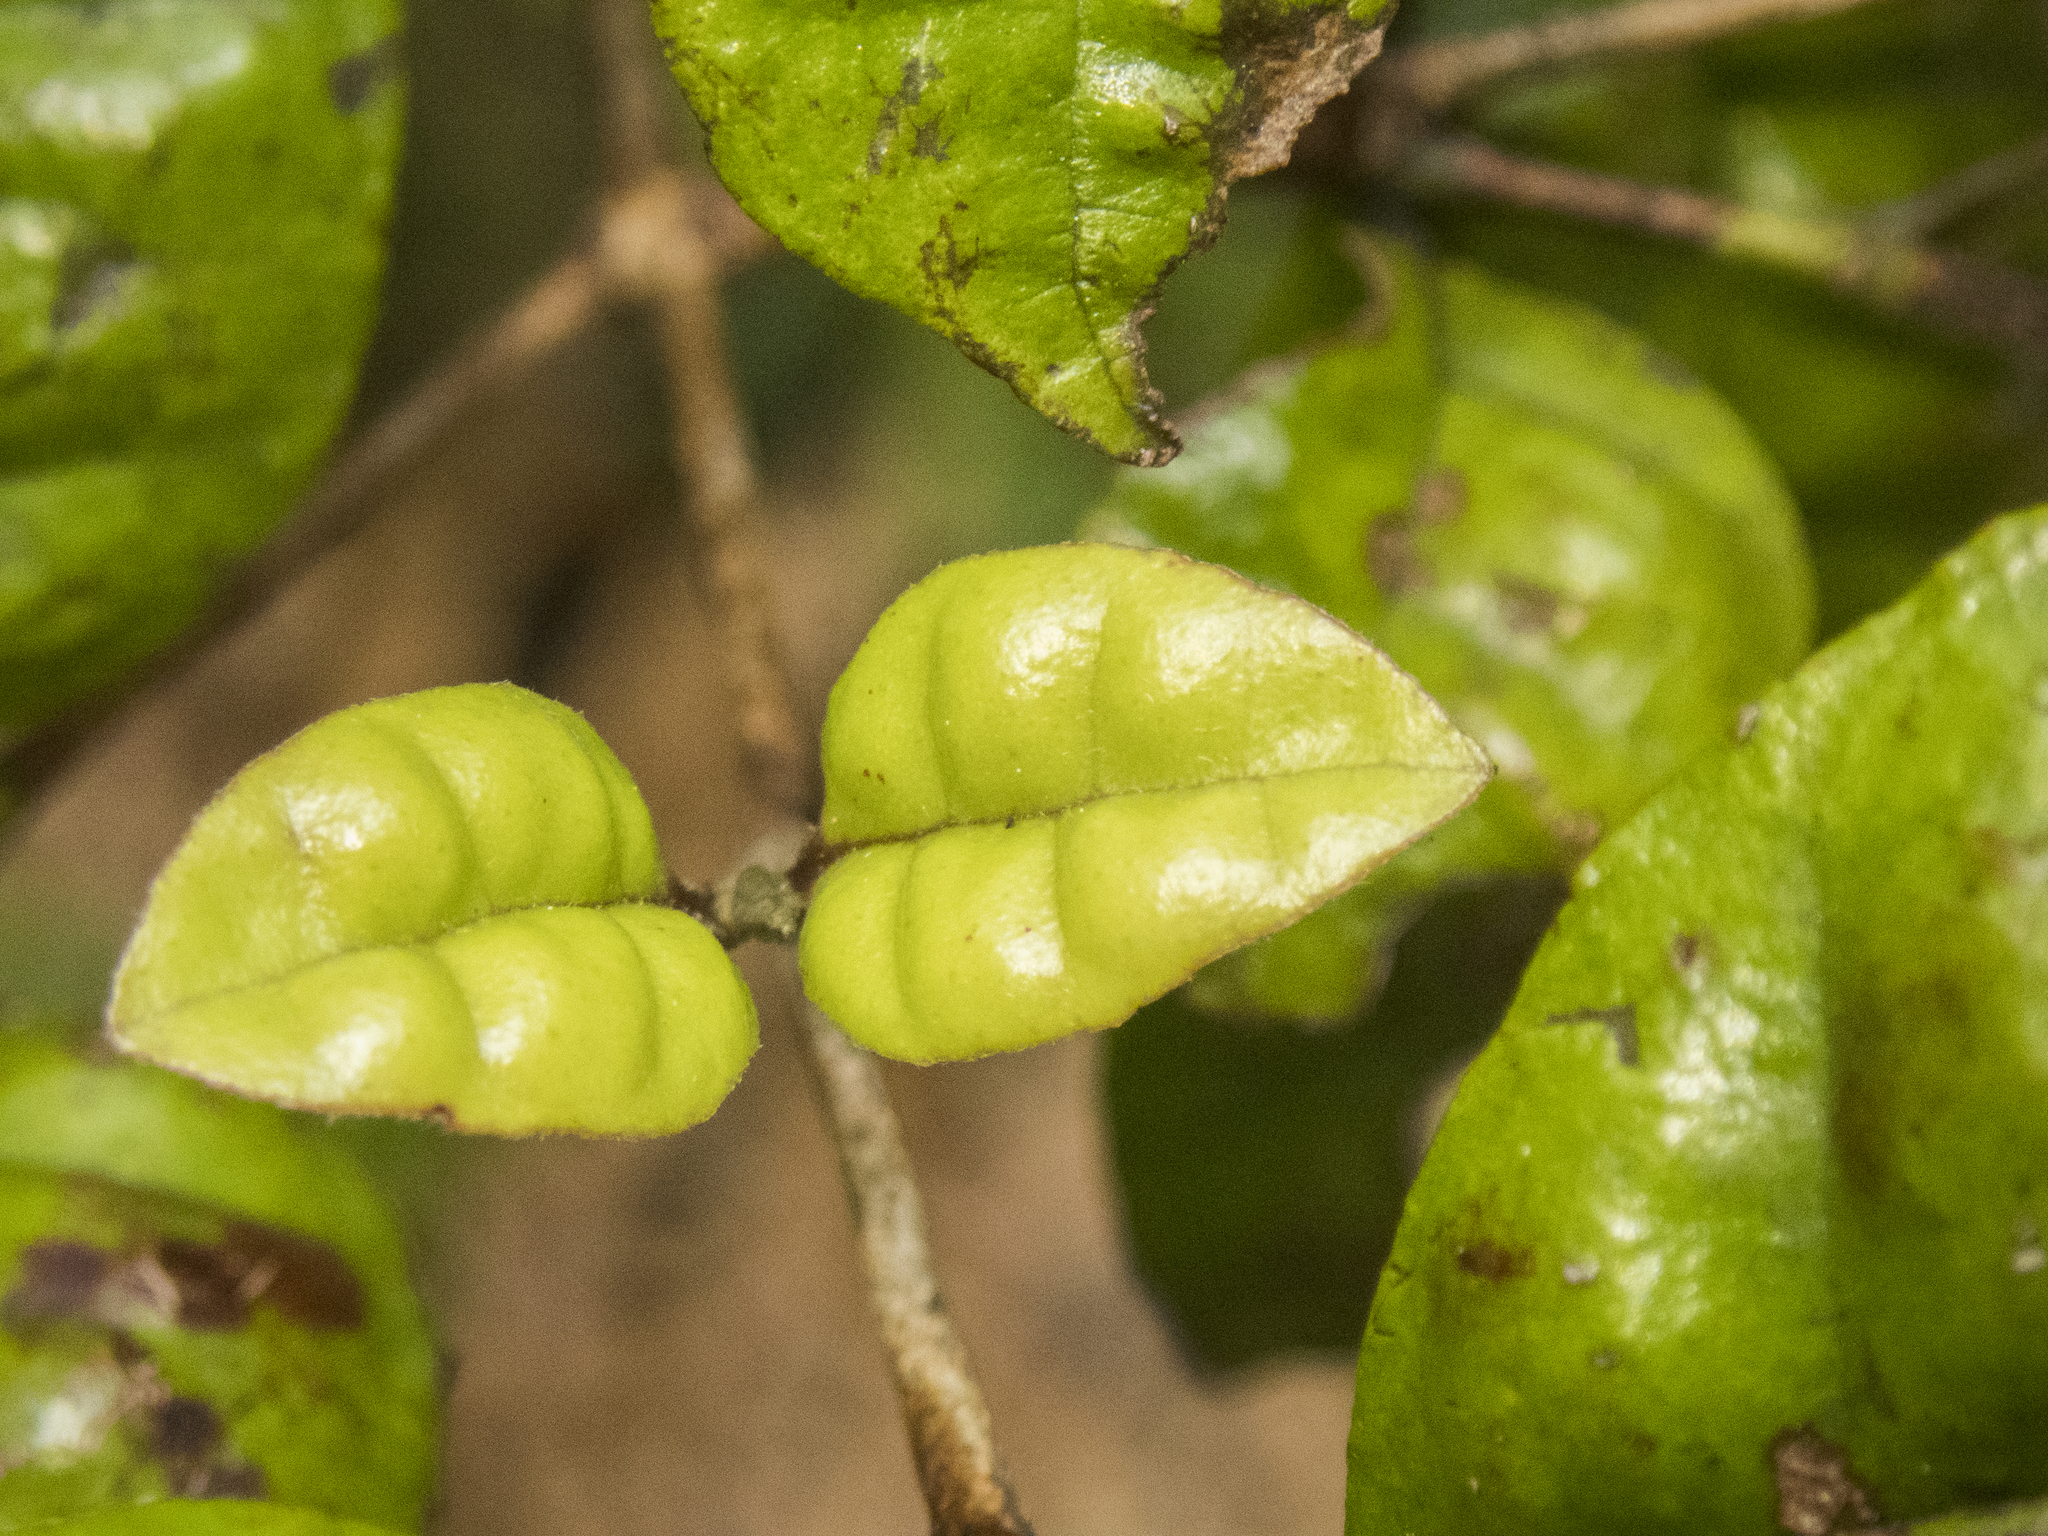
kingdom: Plantae
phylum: Tracheophyta
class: Magnoliopsida
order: Myrtales
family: Myrtaceae
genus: Lophomyrtus
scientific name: Lophomyrtus bullata
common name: Rama rama
